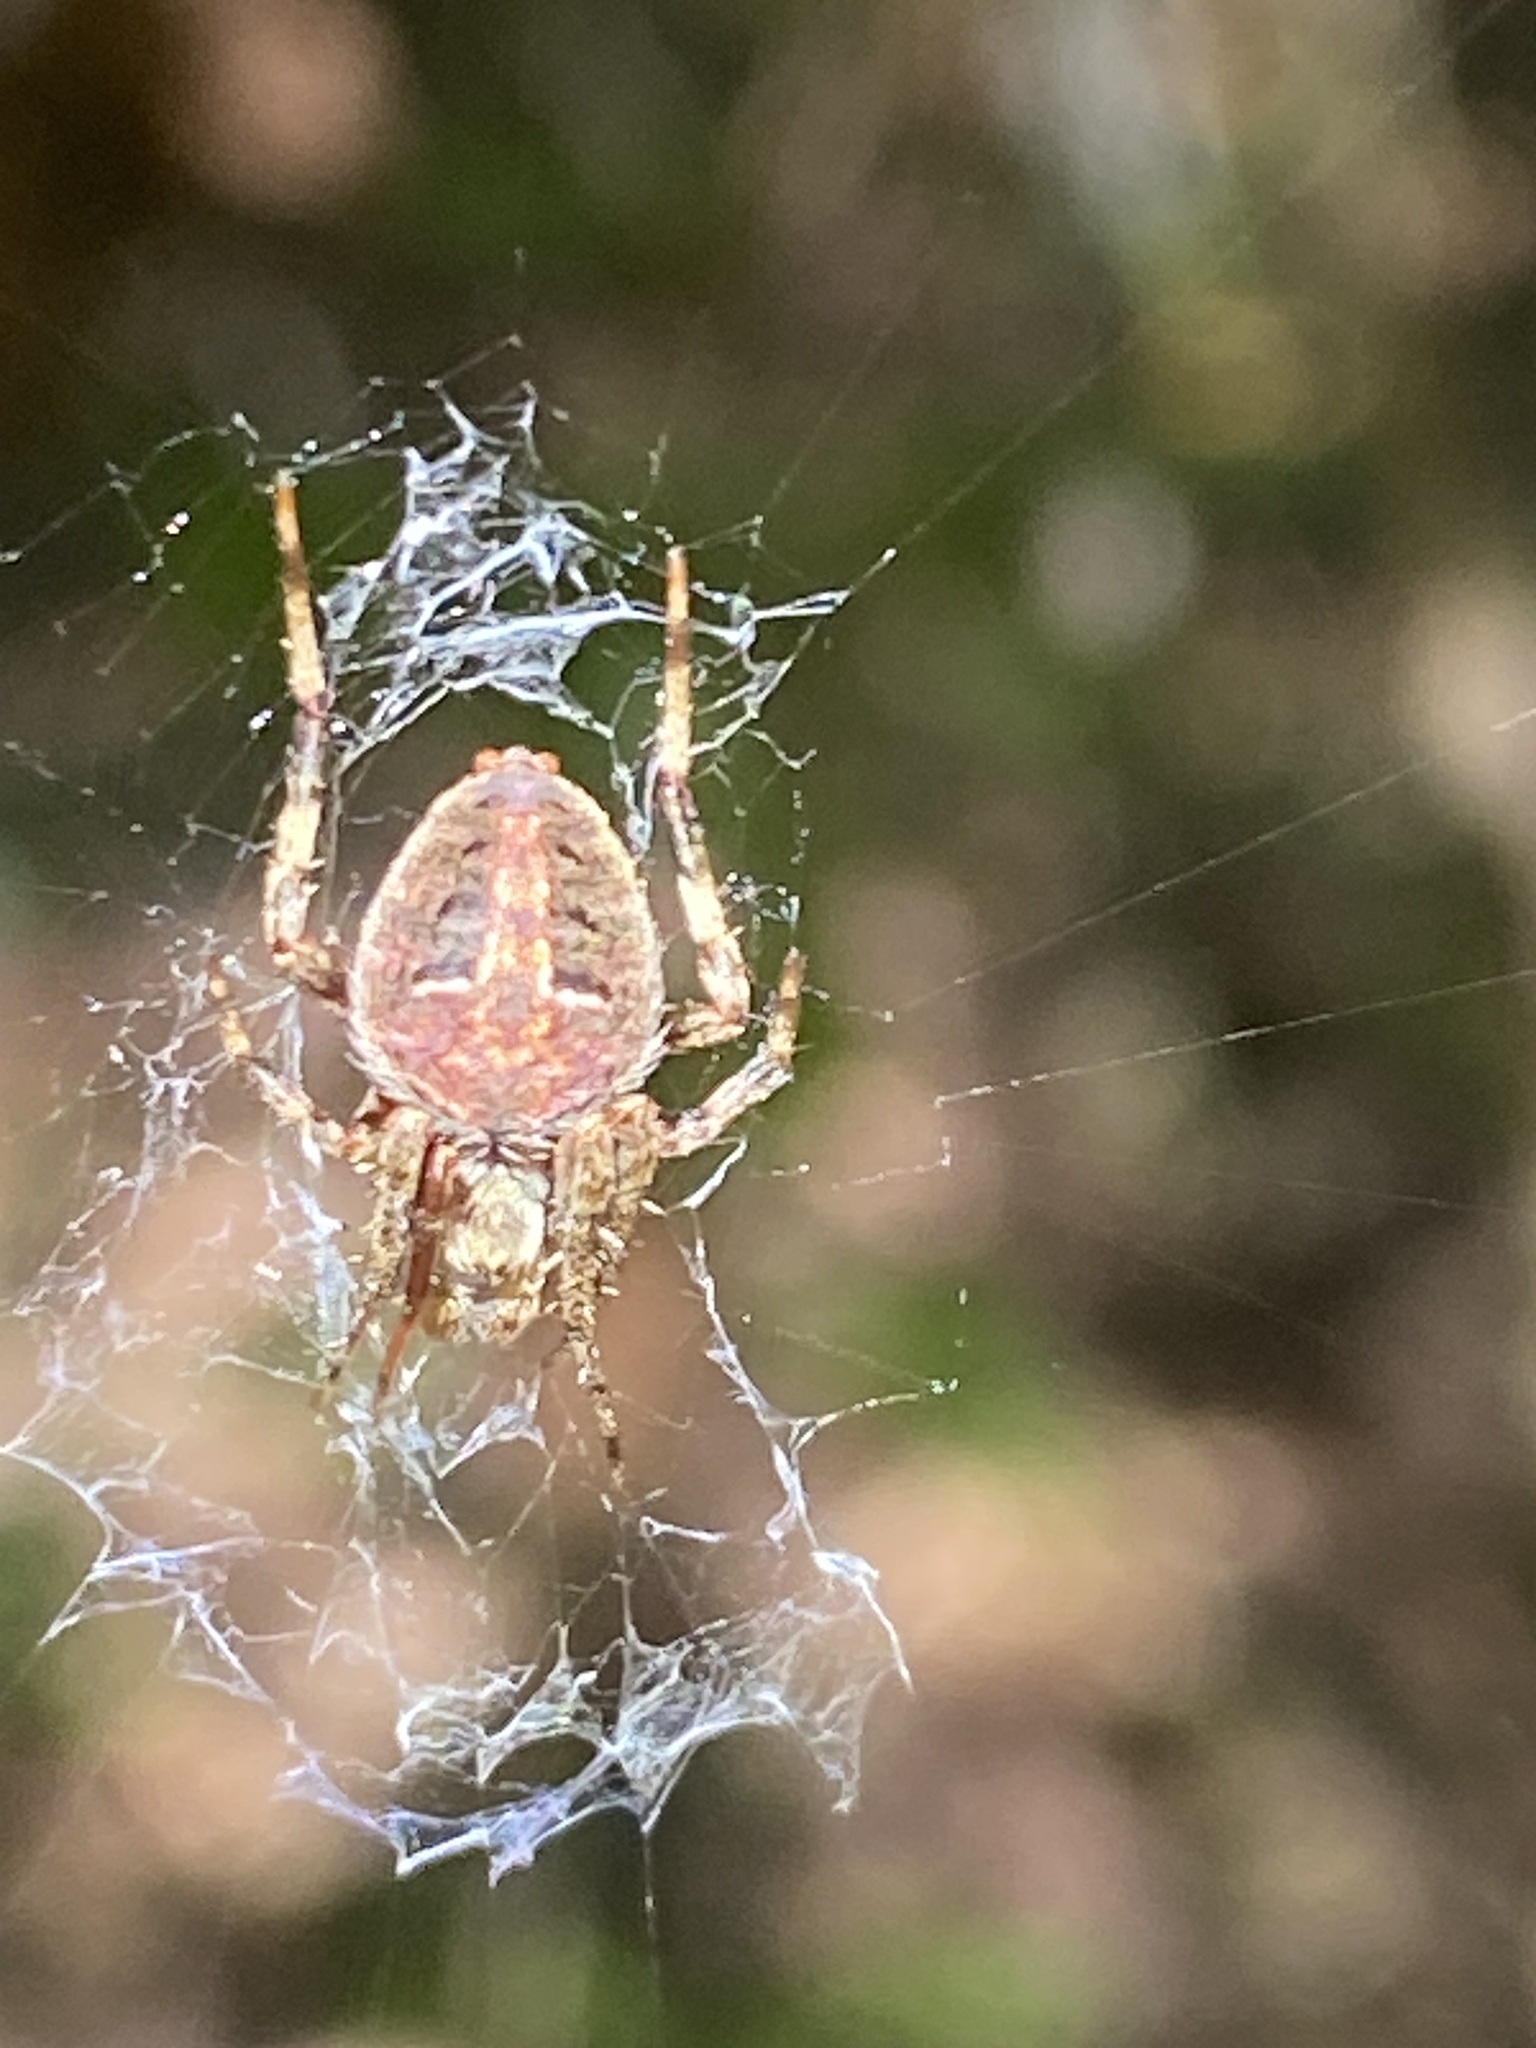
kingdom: Animalia
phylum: Arthropoda
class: Arachnida
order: Araneae
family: Araneidae
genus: Neoscona
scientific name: Neoscona crucifera
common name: Spotted orbweaver
